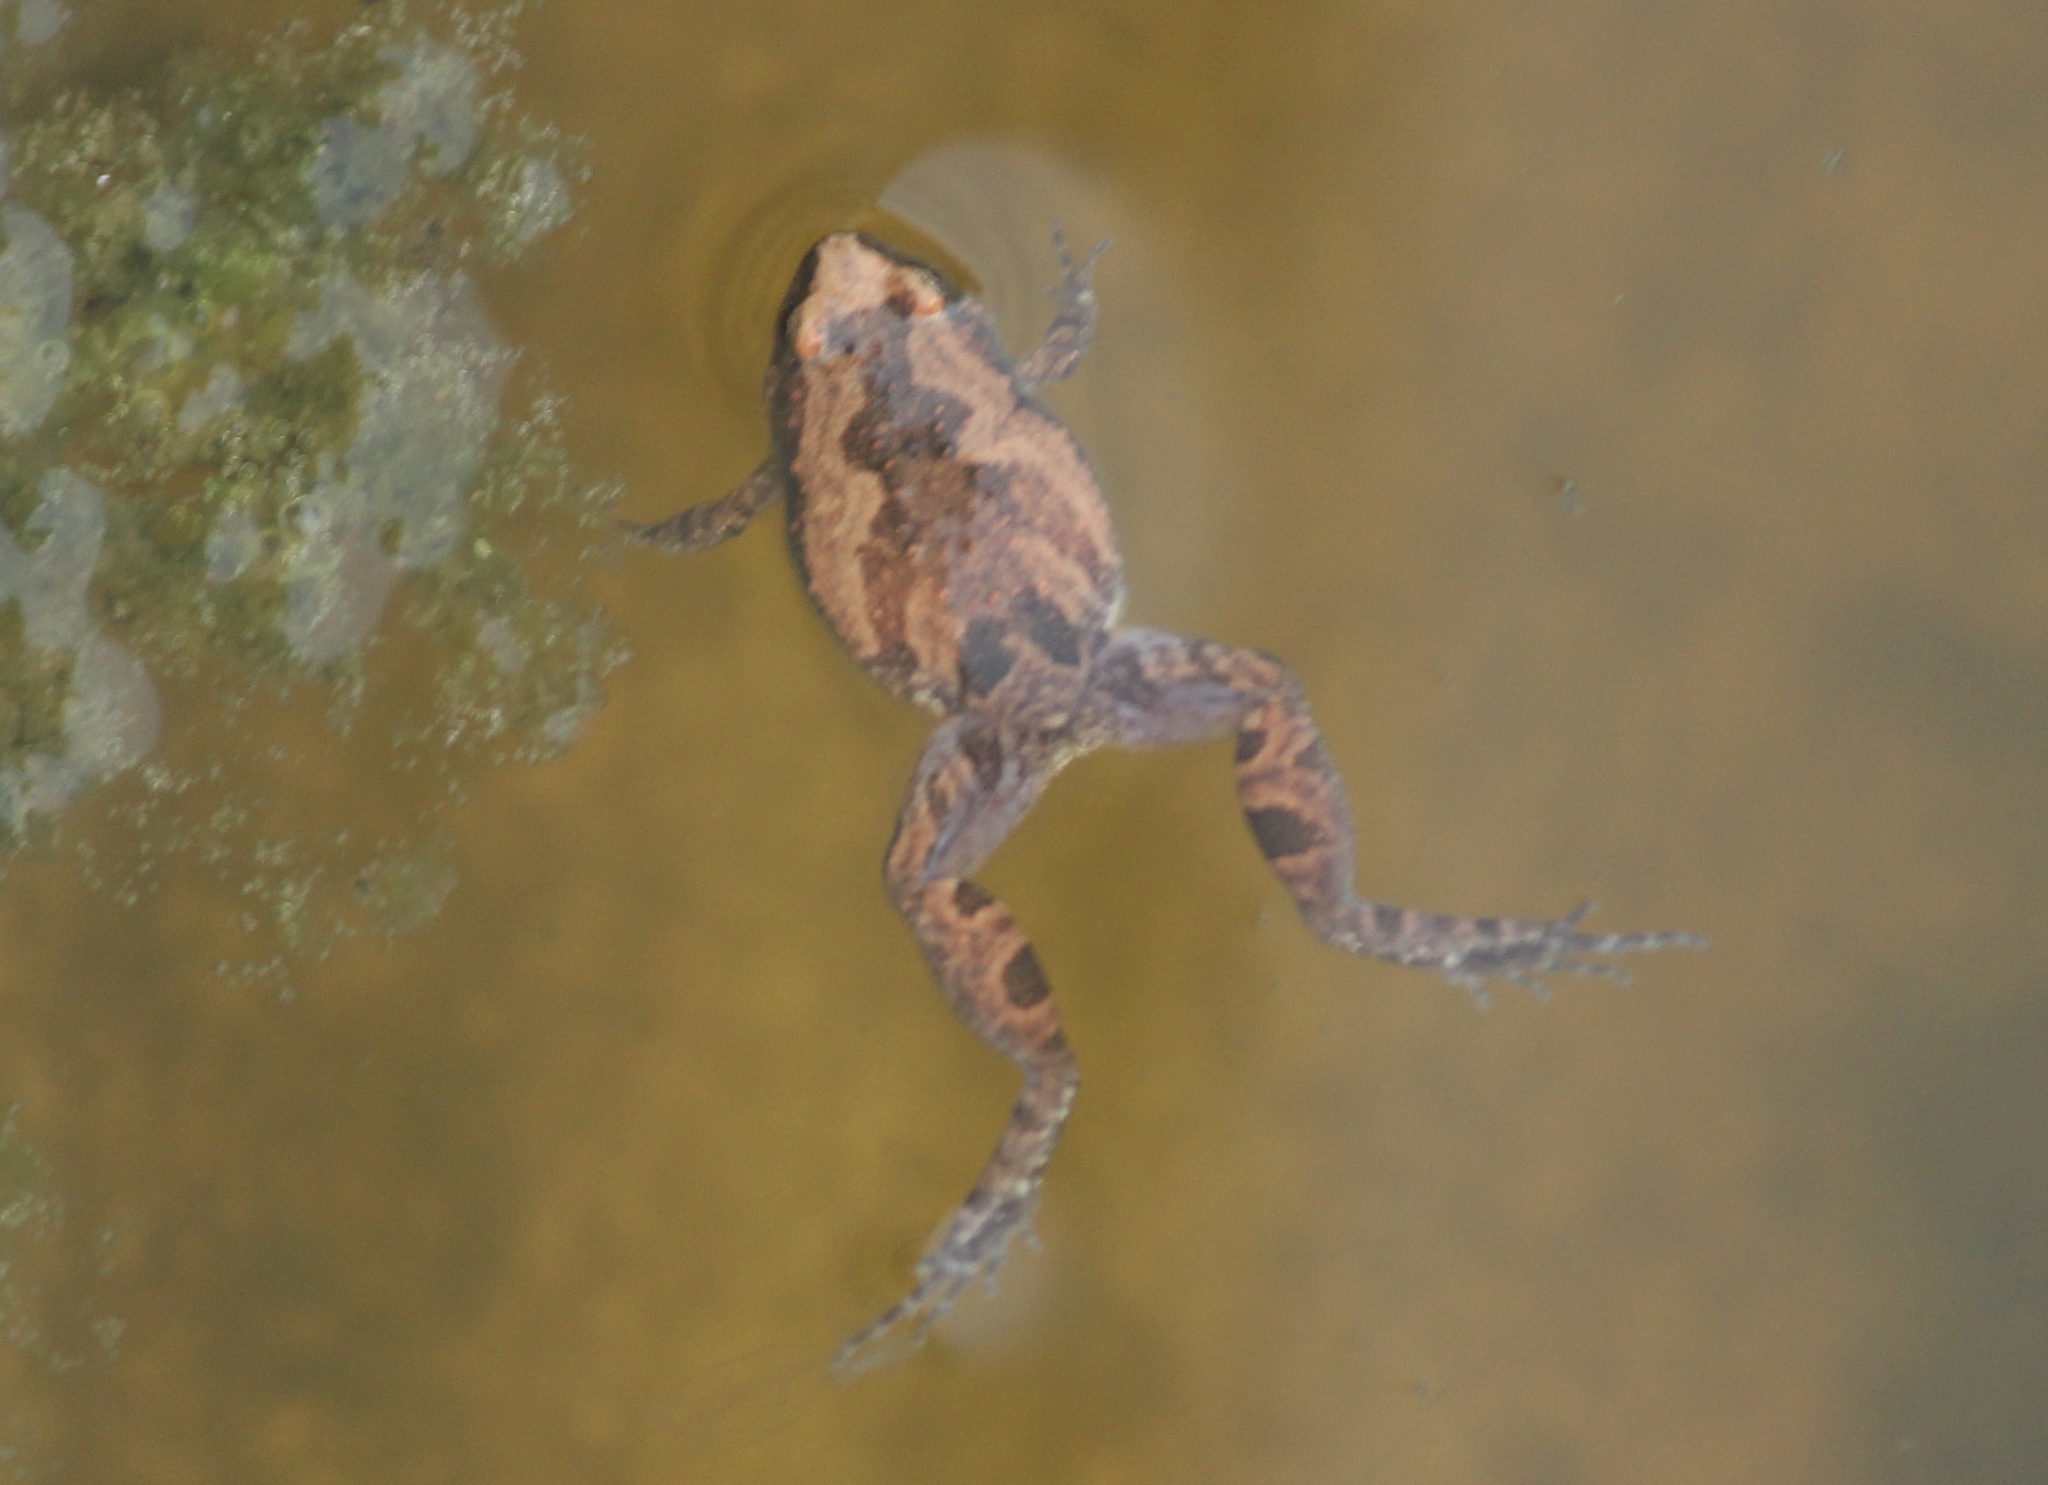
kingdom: Animalia
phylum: Chordata
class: Amphibia
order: Anura
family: Microhylidae
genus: Microhyla
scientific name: Microhyla ornata
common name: Ant frog
